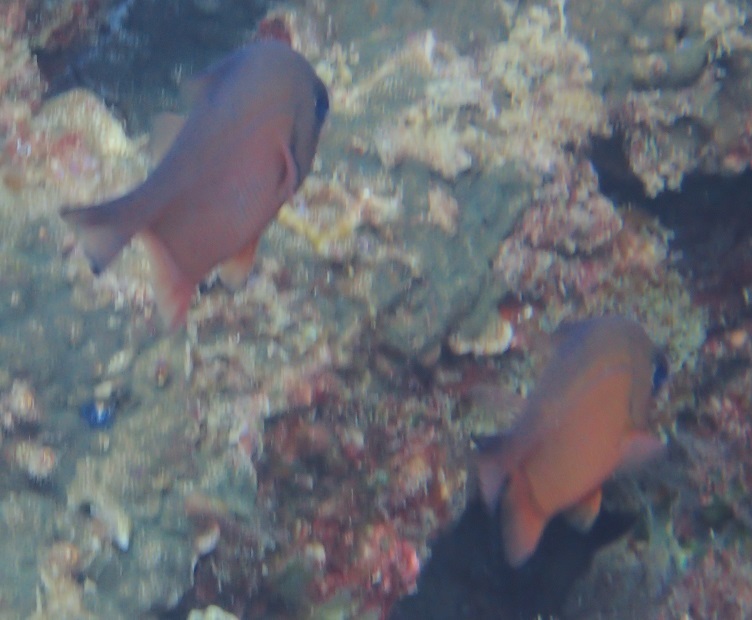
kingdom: Animalia
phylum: Chordata
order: Perciformes
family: Pempheridae
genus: Pempheris
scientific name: Pempheris analis
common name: Big eye
